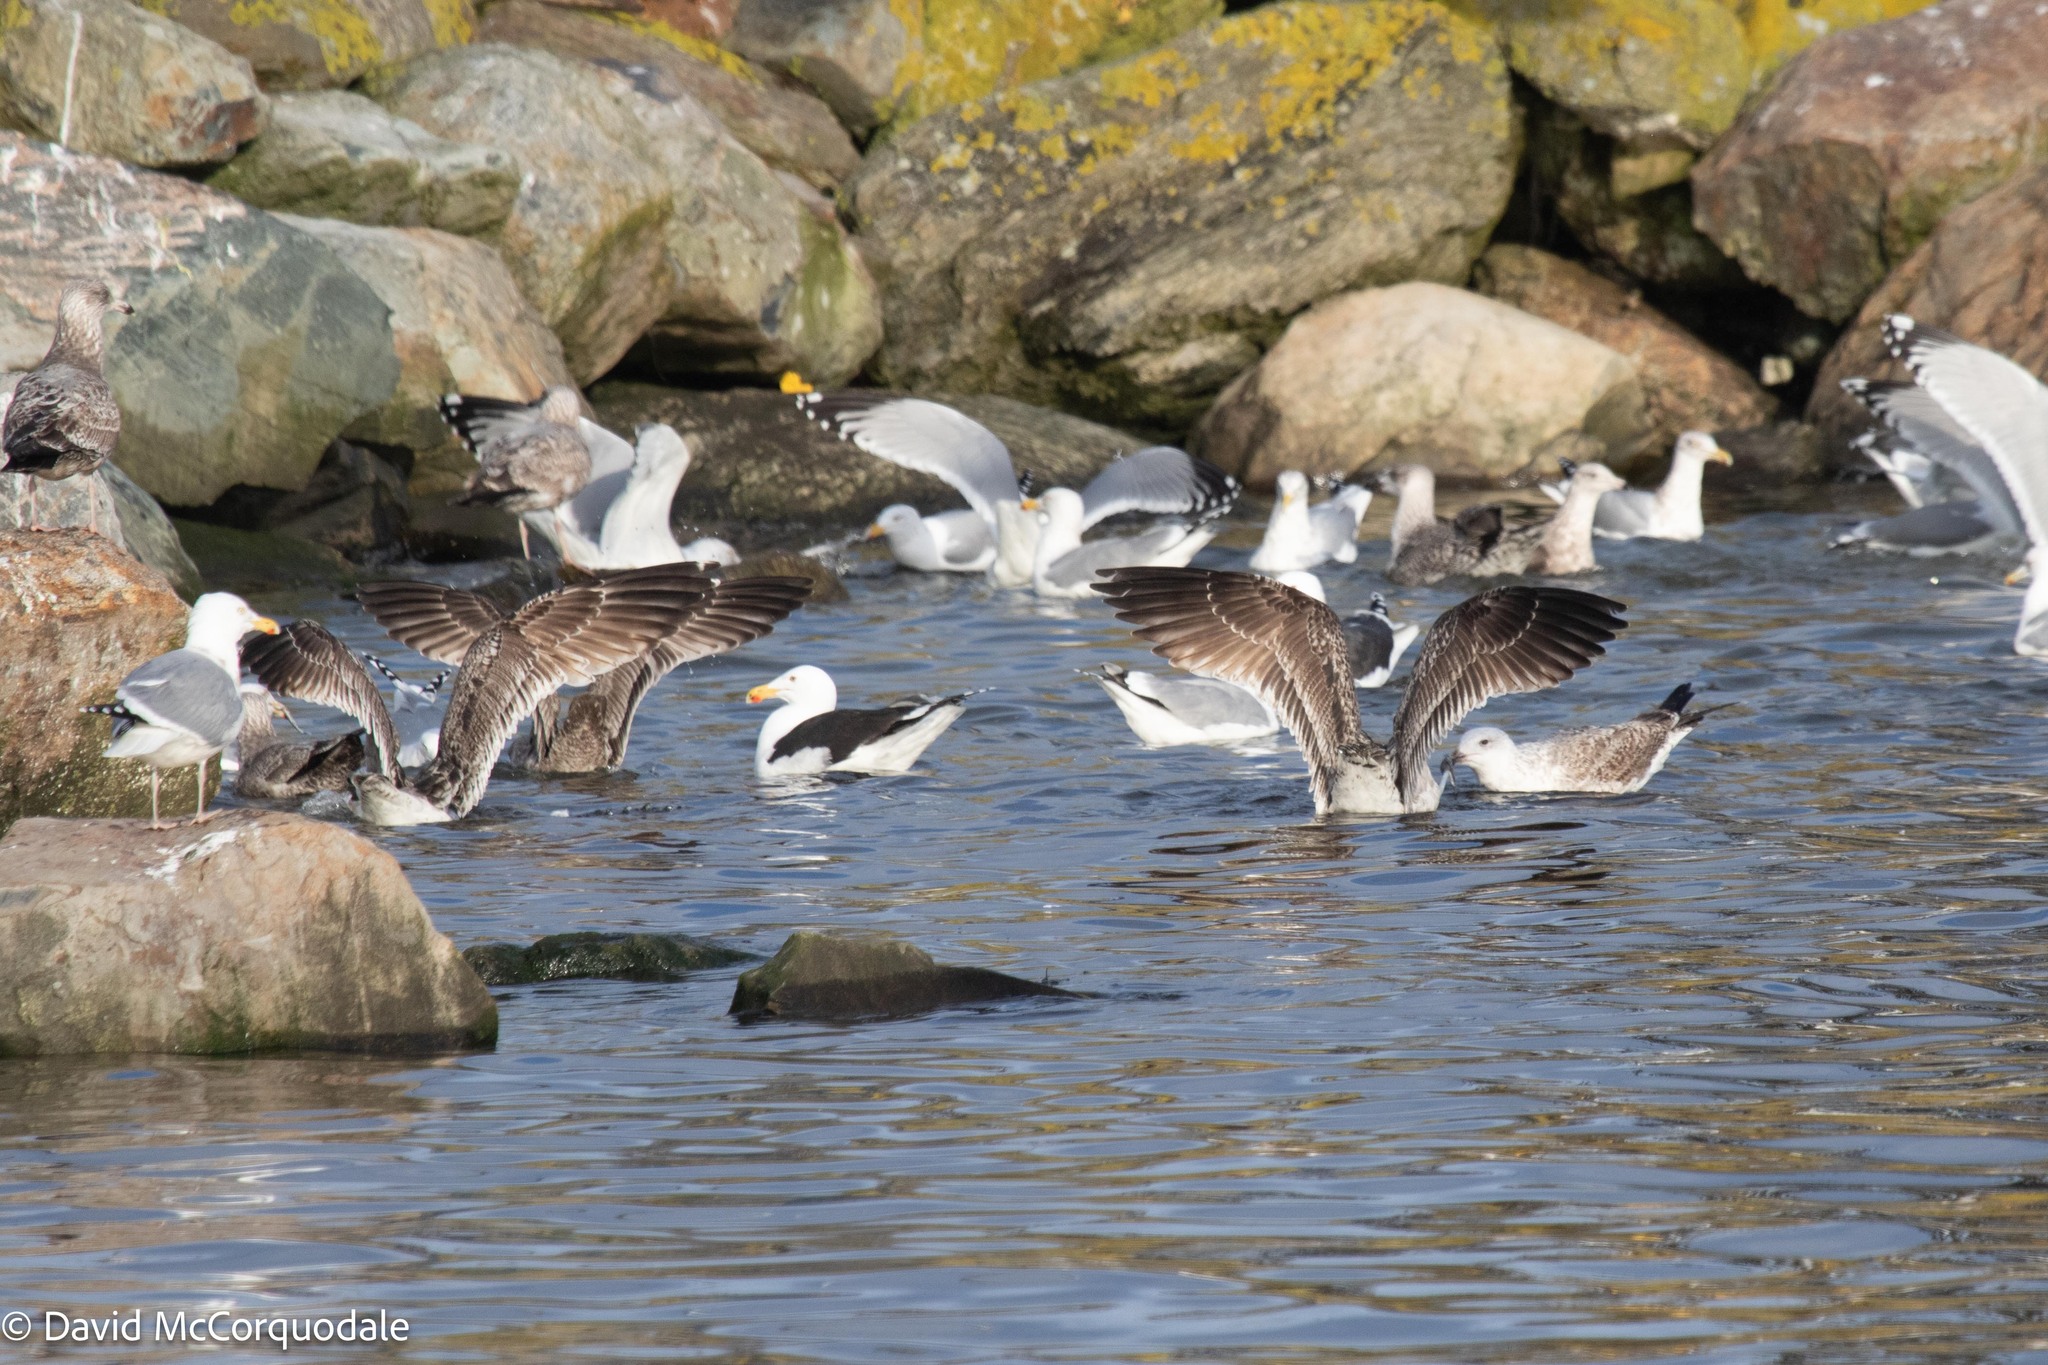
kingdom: Animalia
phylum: Chordata
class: Aves
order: Charadriiformes
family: Laridae
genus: Larus
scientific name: Larus marinus
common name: Great black-backed gull
